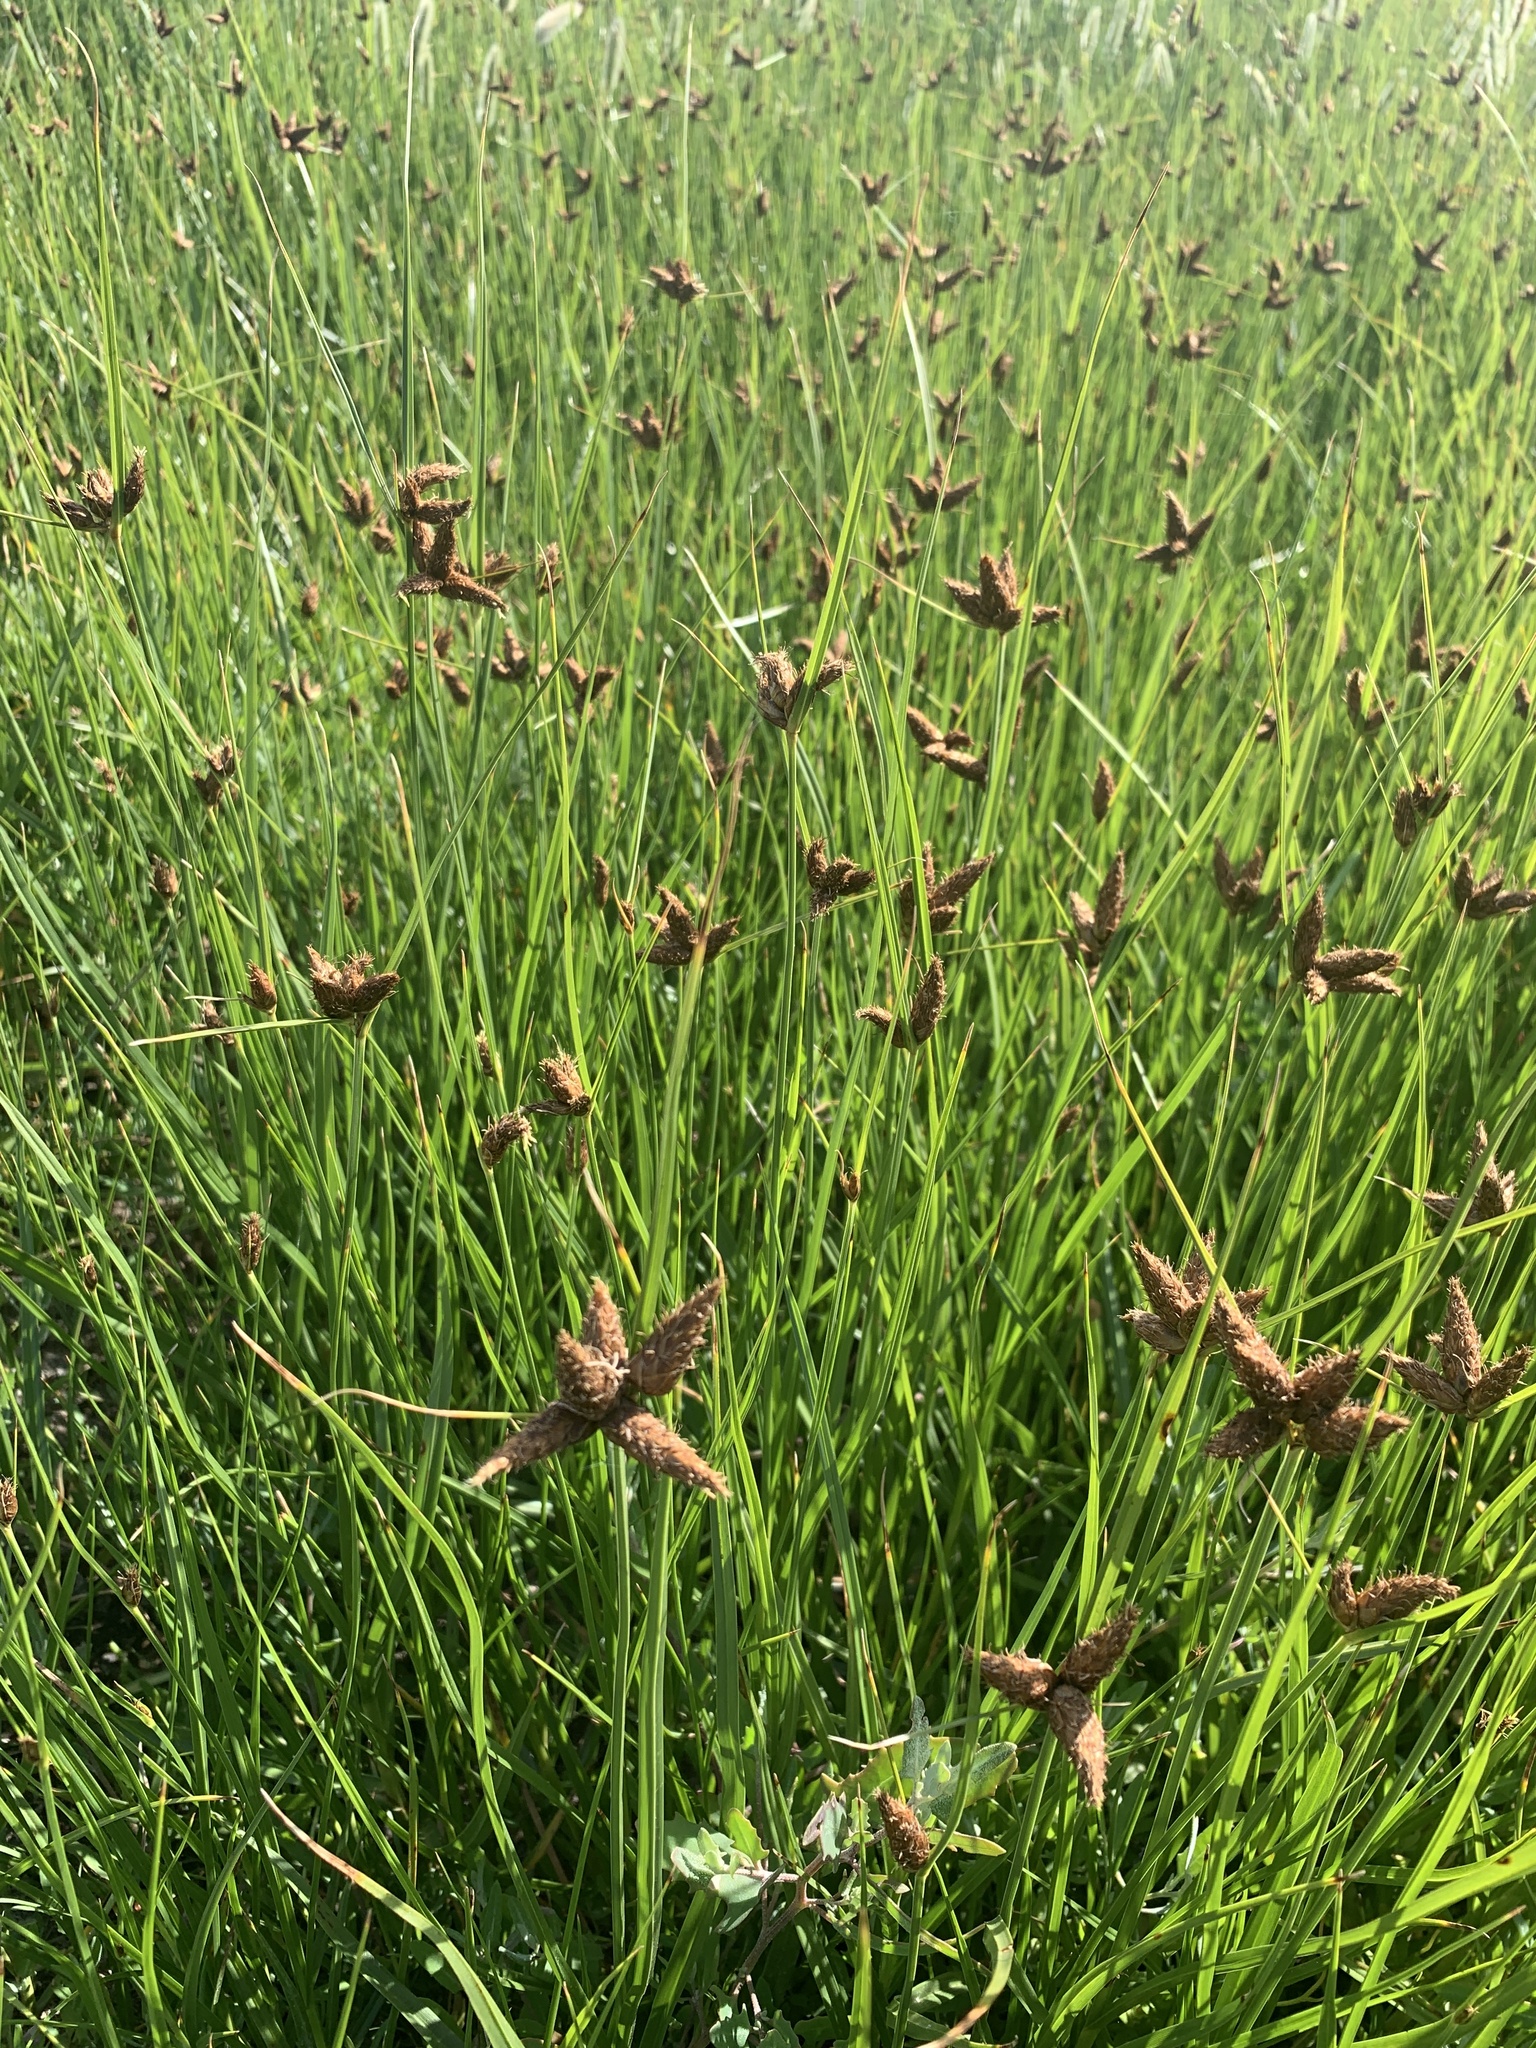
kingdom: Plantae
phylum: Tracheophyta
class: Liliopsida
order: Poales
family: Cyperaceae
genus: Bolboschoenus
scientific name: Bolboschoenus maritimus
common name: Sea club-rush
